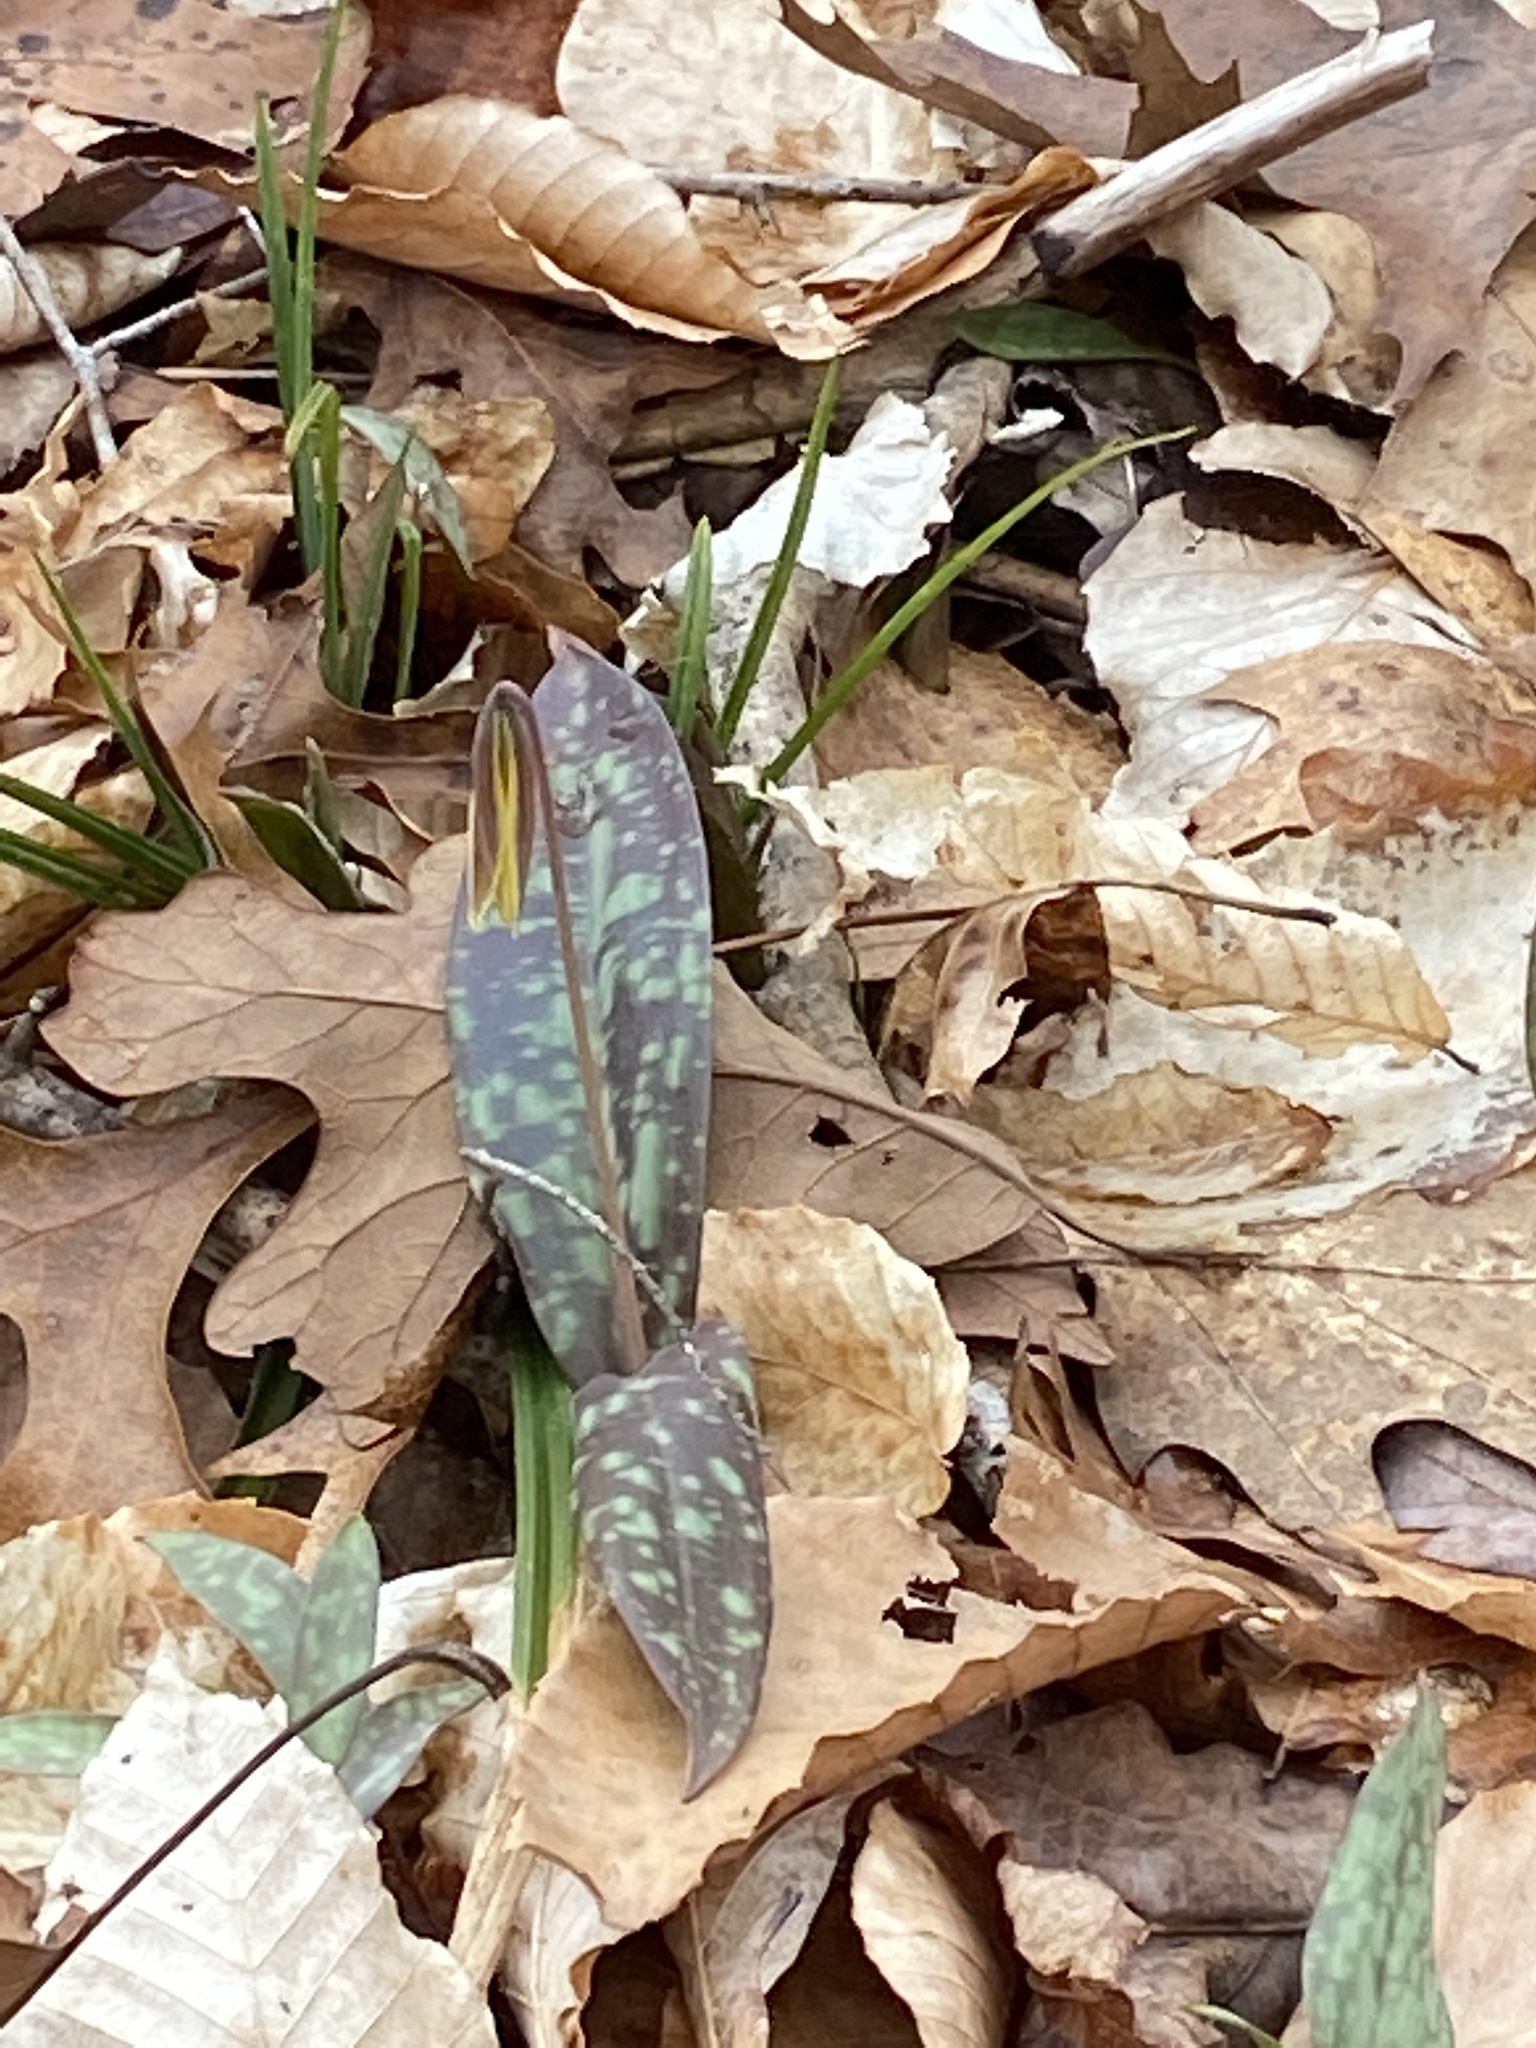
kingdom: Plantae
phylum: Tracheophyta
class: Liliopsida
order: Liliales
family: Liliaceae
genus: Erythronium
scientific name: Erythronium umbilicatum
